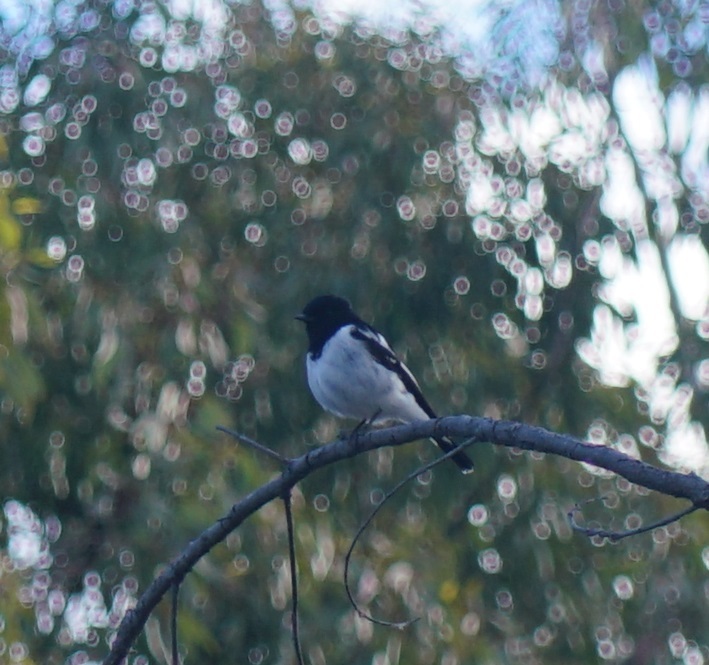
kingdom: Animalia
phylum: Chordata
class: Aves
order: Passeriformes
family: Petroicidae
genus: Melanodryas
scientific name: Melanodryas cucullata
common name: Hooded robin
